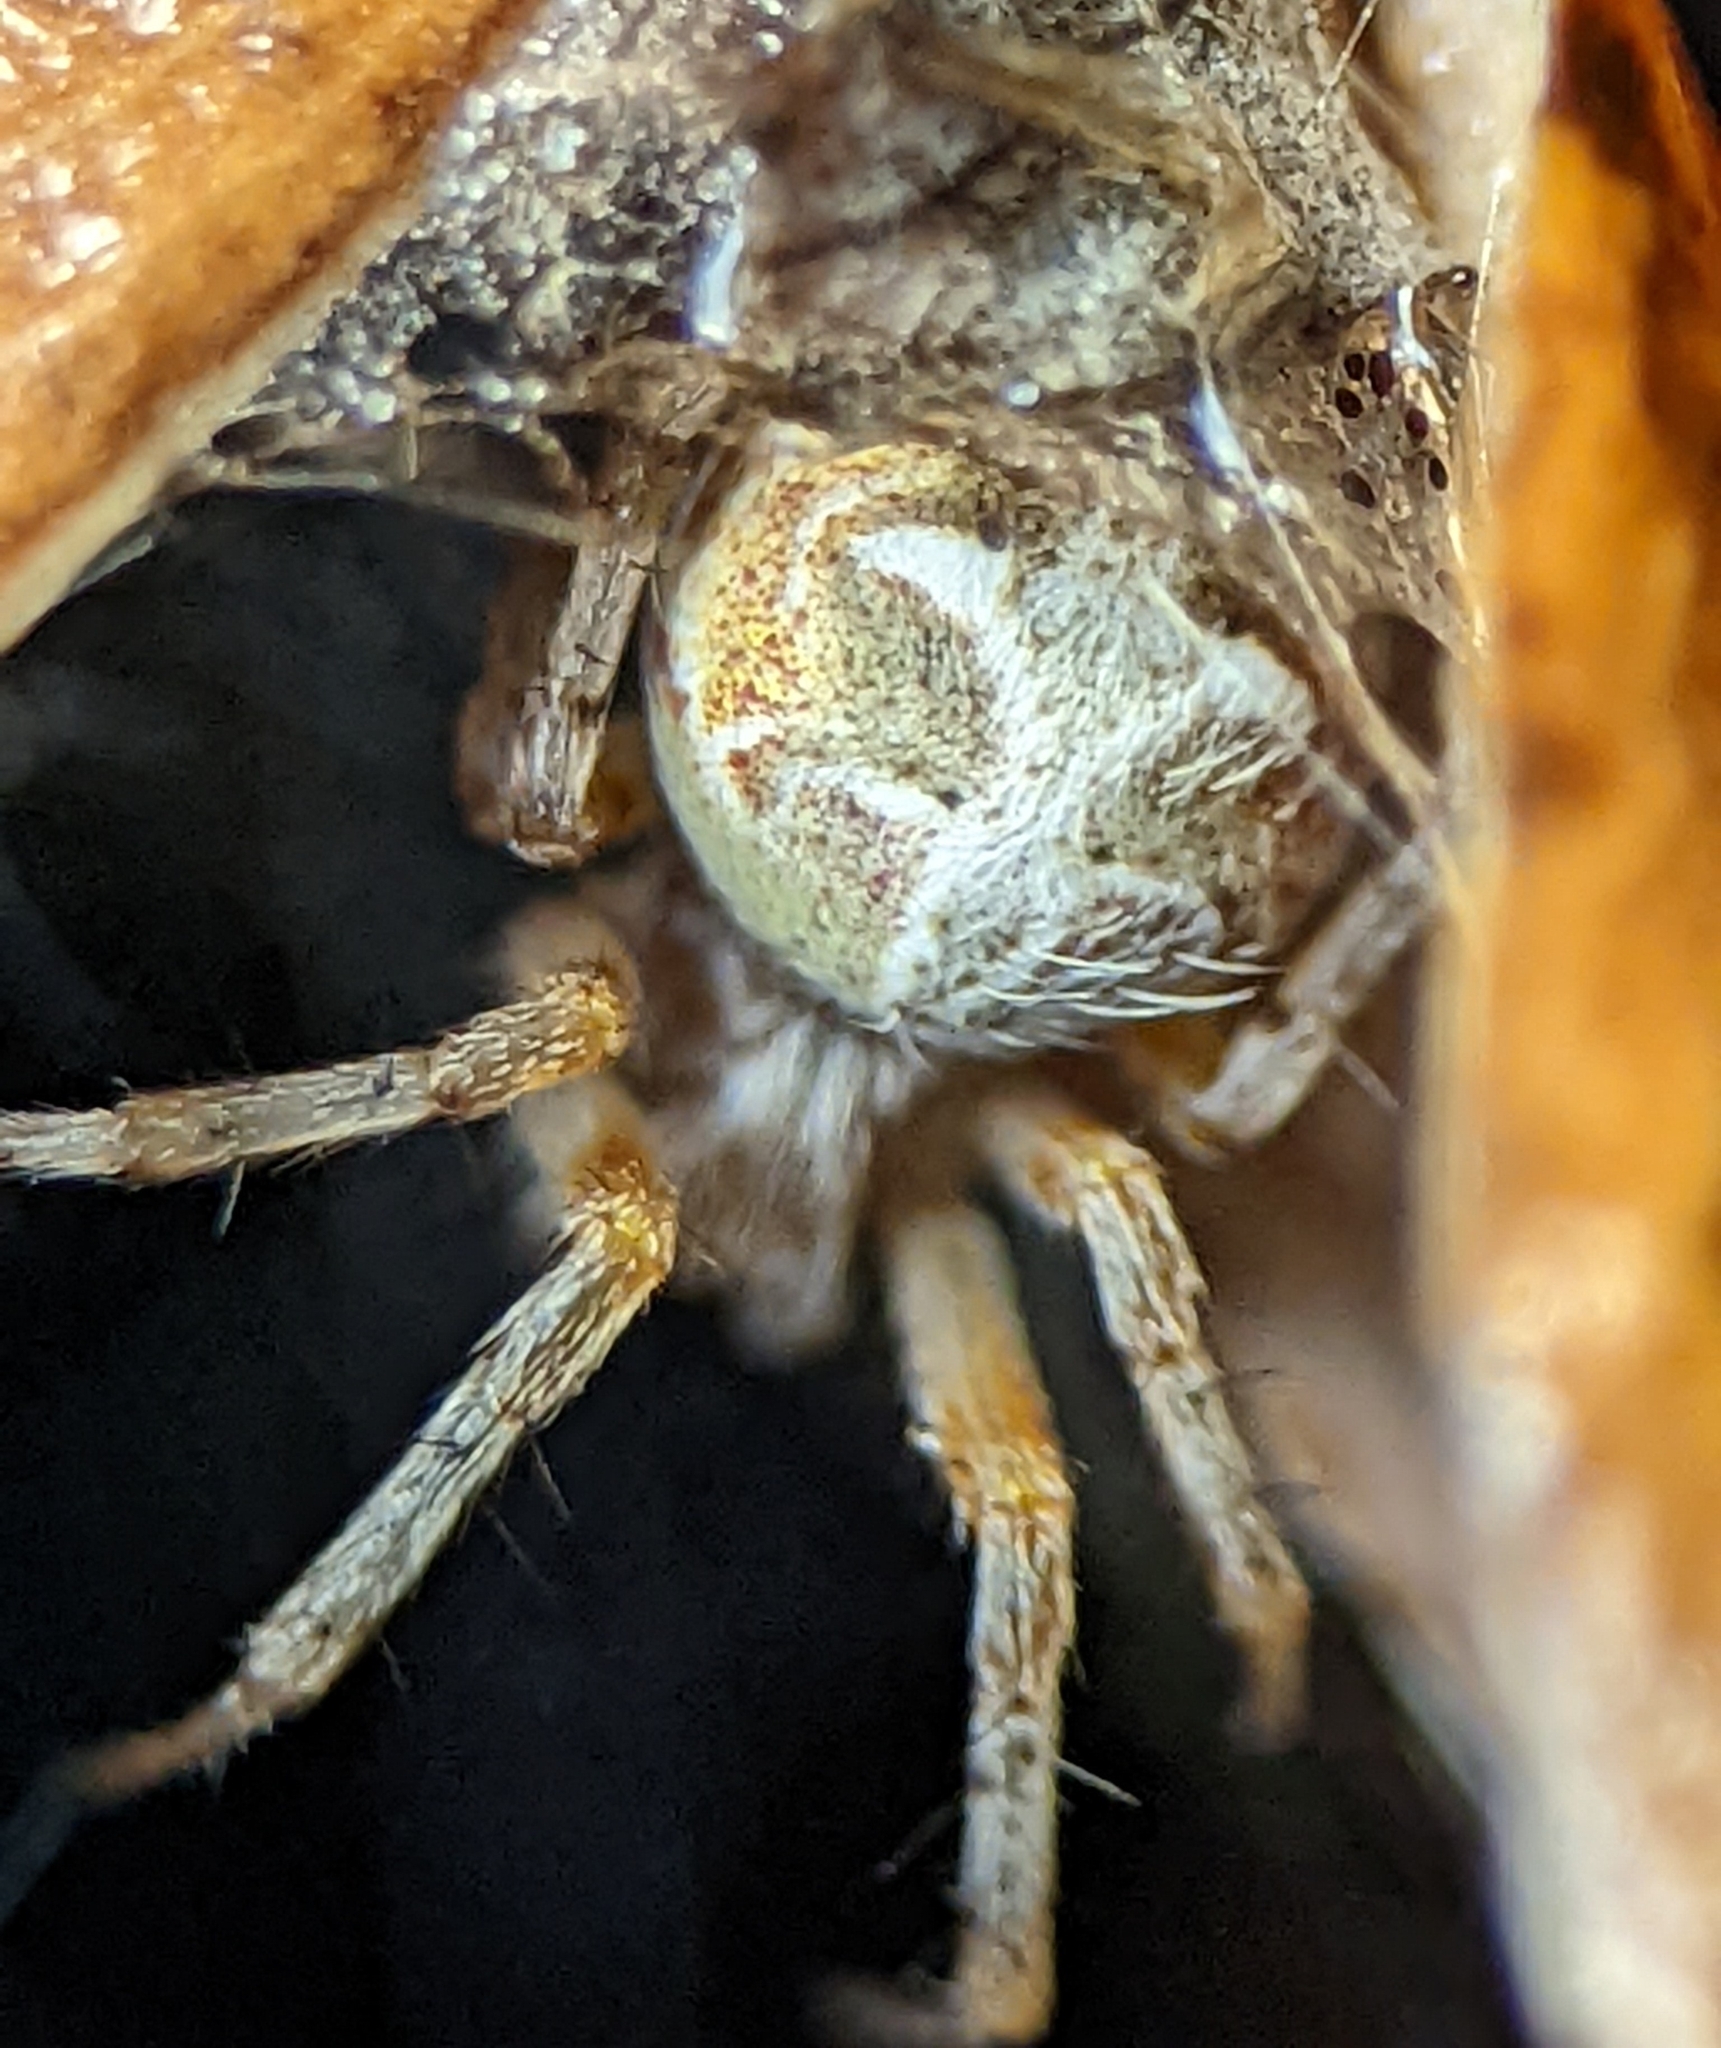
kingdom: Animalia
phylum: Arthropoda
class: Arachnida
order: Araneae
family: Araneidae
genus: Metepeira
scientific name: Metepeira labyrinthea
